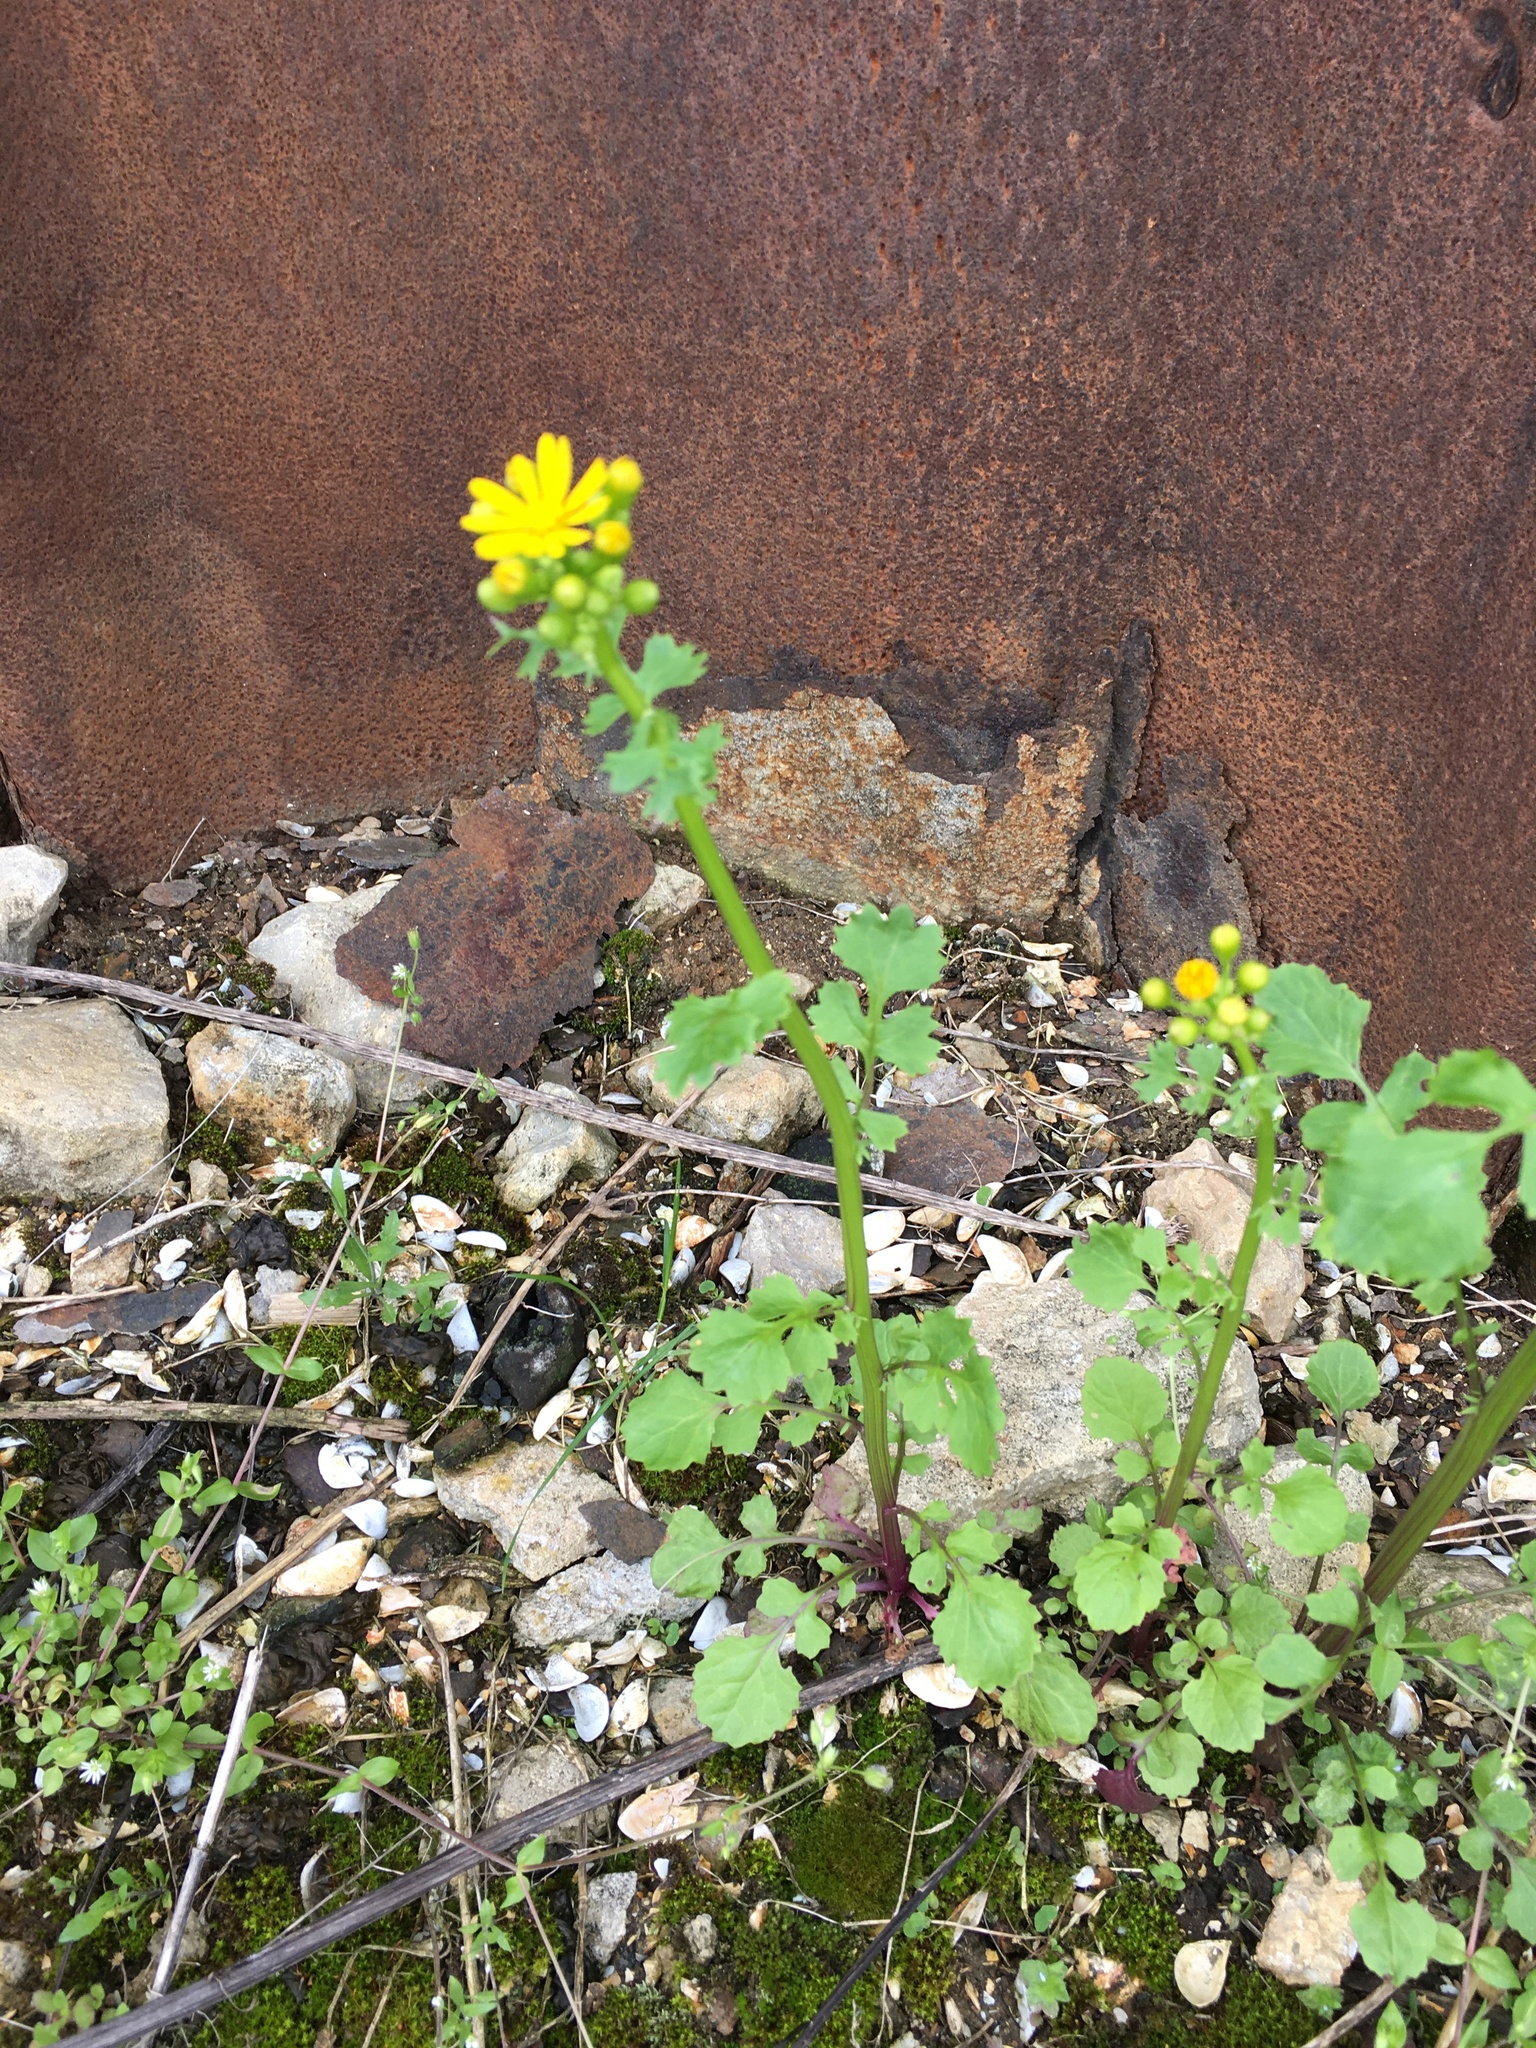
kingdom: Plantae
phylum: Tracheophyta
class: Magnoliopsida
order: Asterales
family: Asteraceae
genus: Packera
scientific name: Packera glabella
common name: Butterweed
